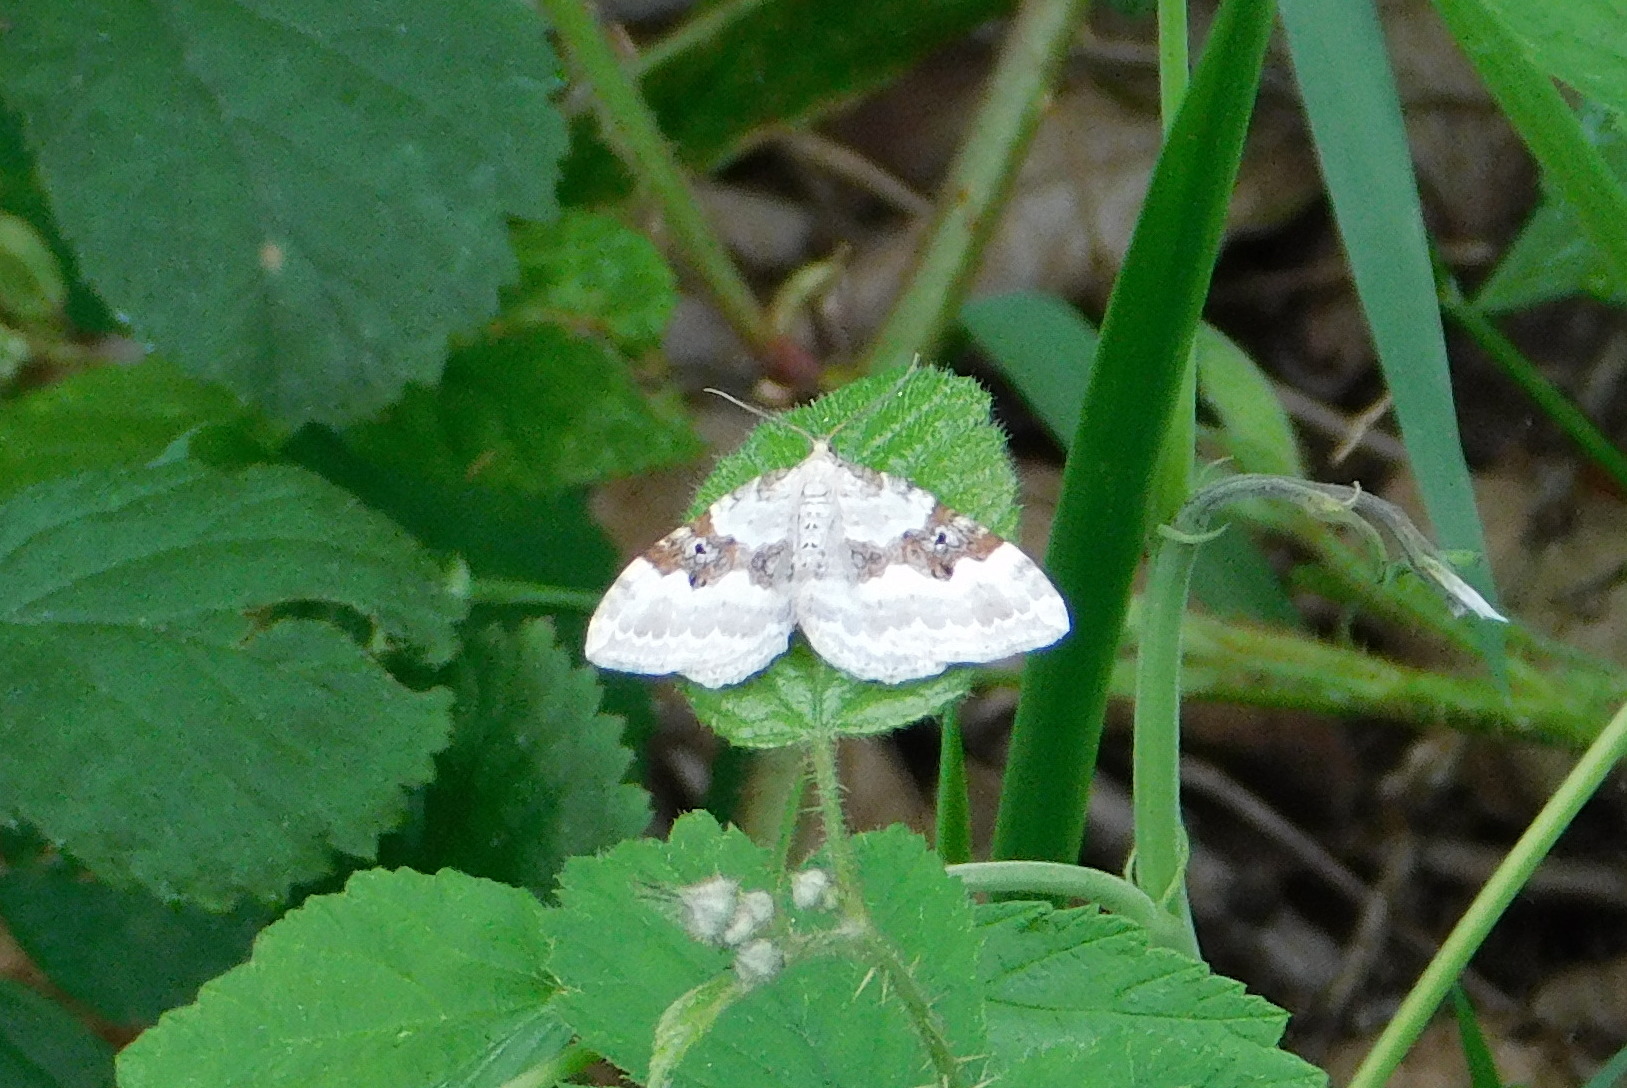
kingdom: Animalia
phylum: Arthropoda
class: Insecta
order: Lepidoptera
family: Geometridae
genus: Xanthorhoe
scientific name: Xanthorhoe montanata
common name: Silver-ground carpet
